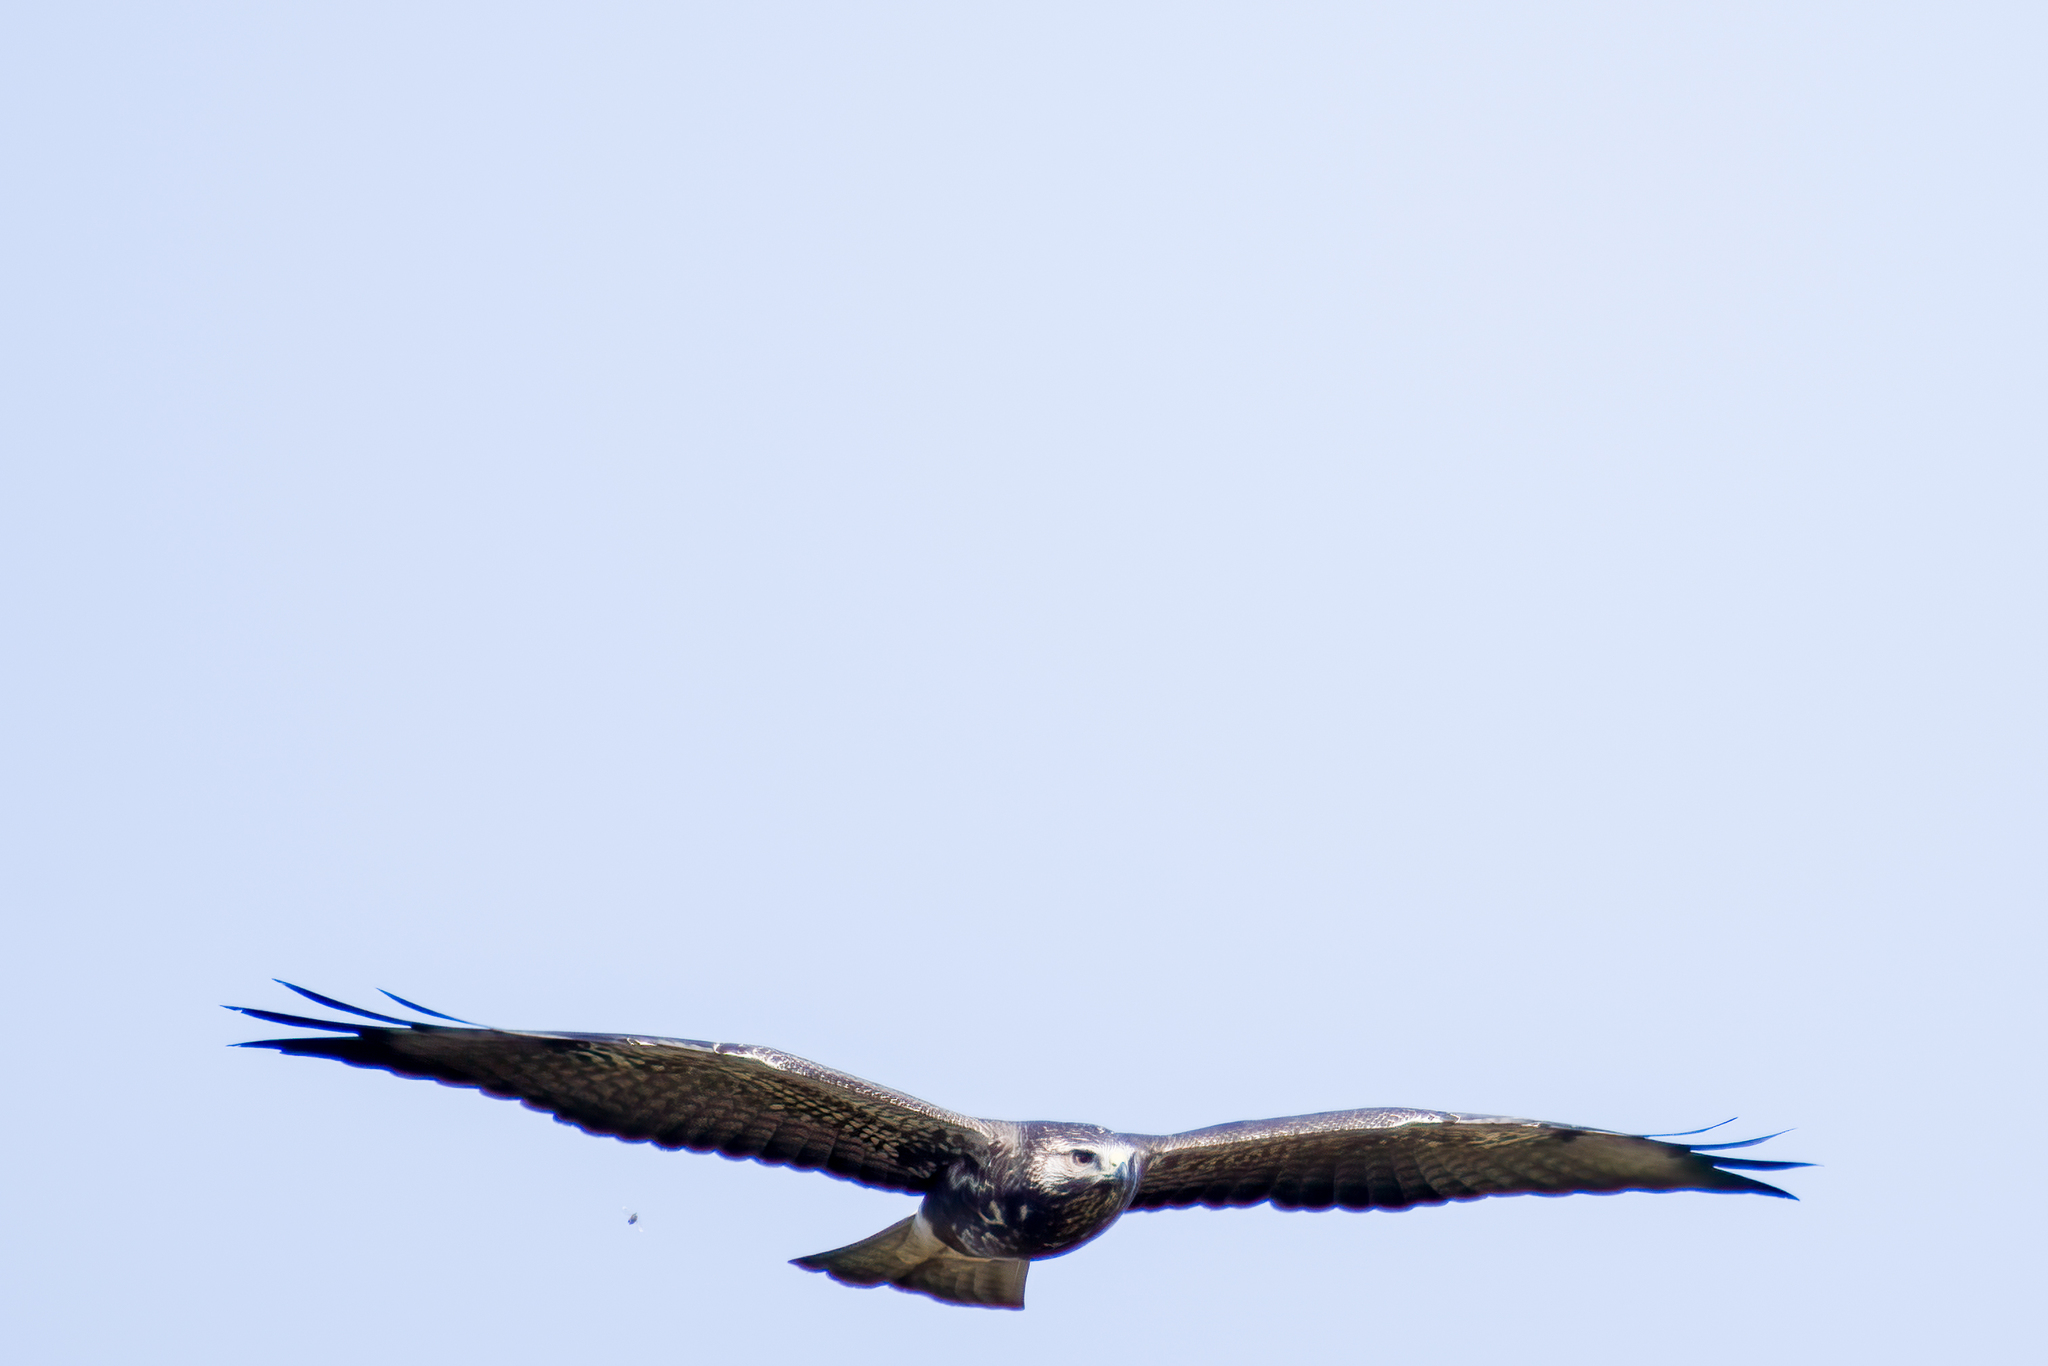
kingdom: Animalia
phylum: Chordata
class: Aves
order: Accipitriformes
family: Accipitridae
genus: Buteo
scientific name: Buteo swainsoni
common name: Swainson's hawk
